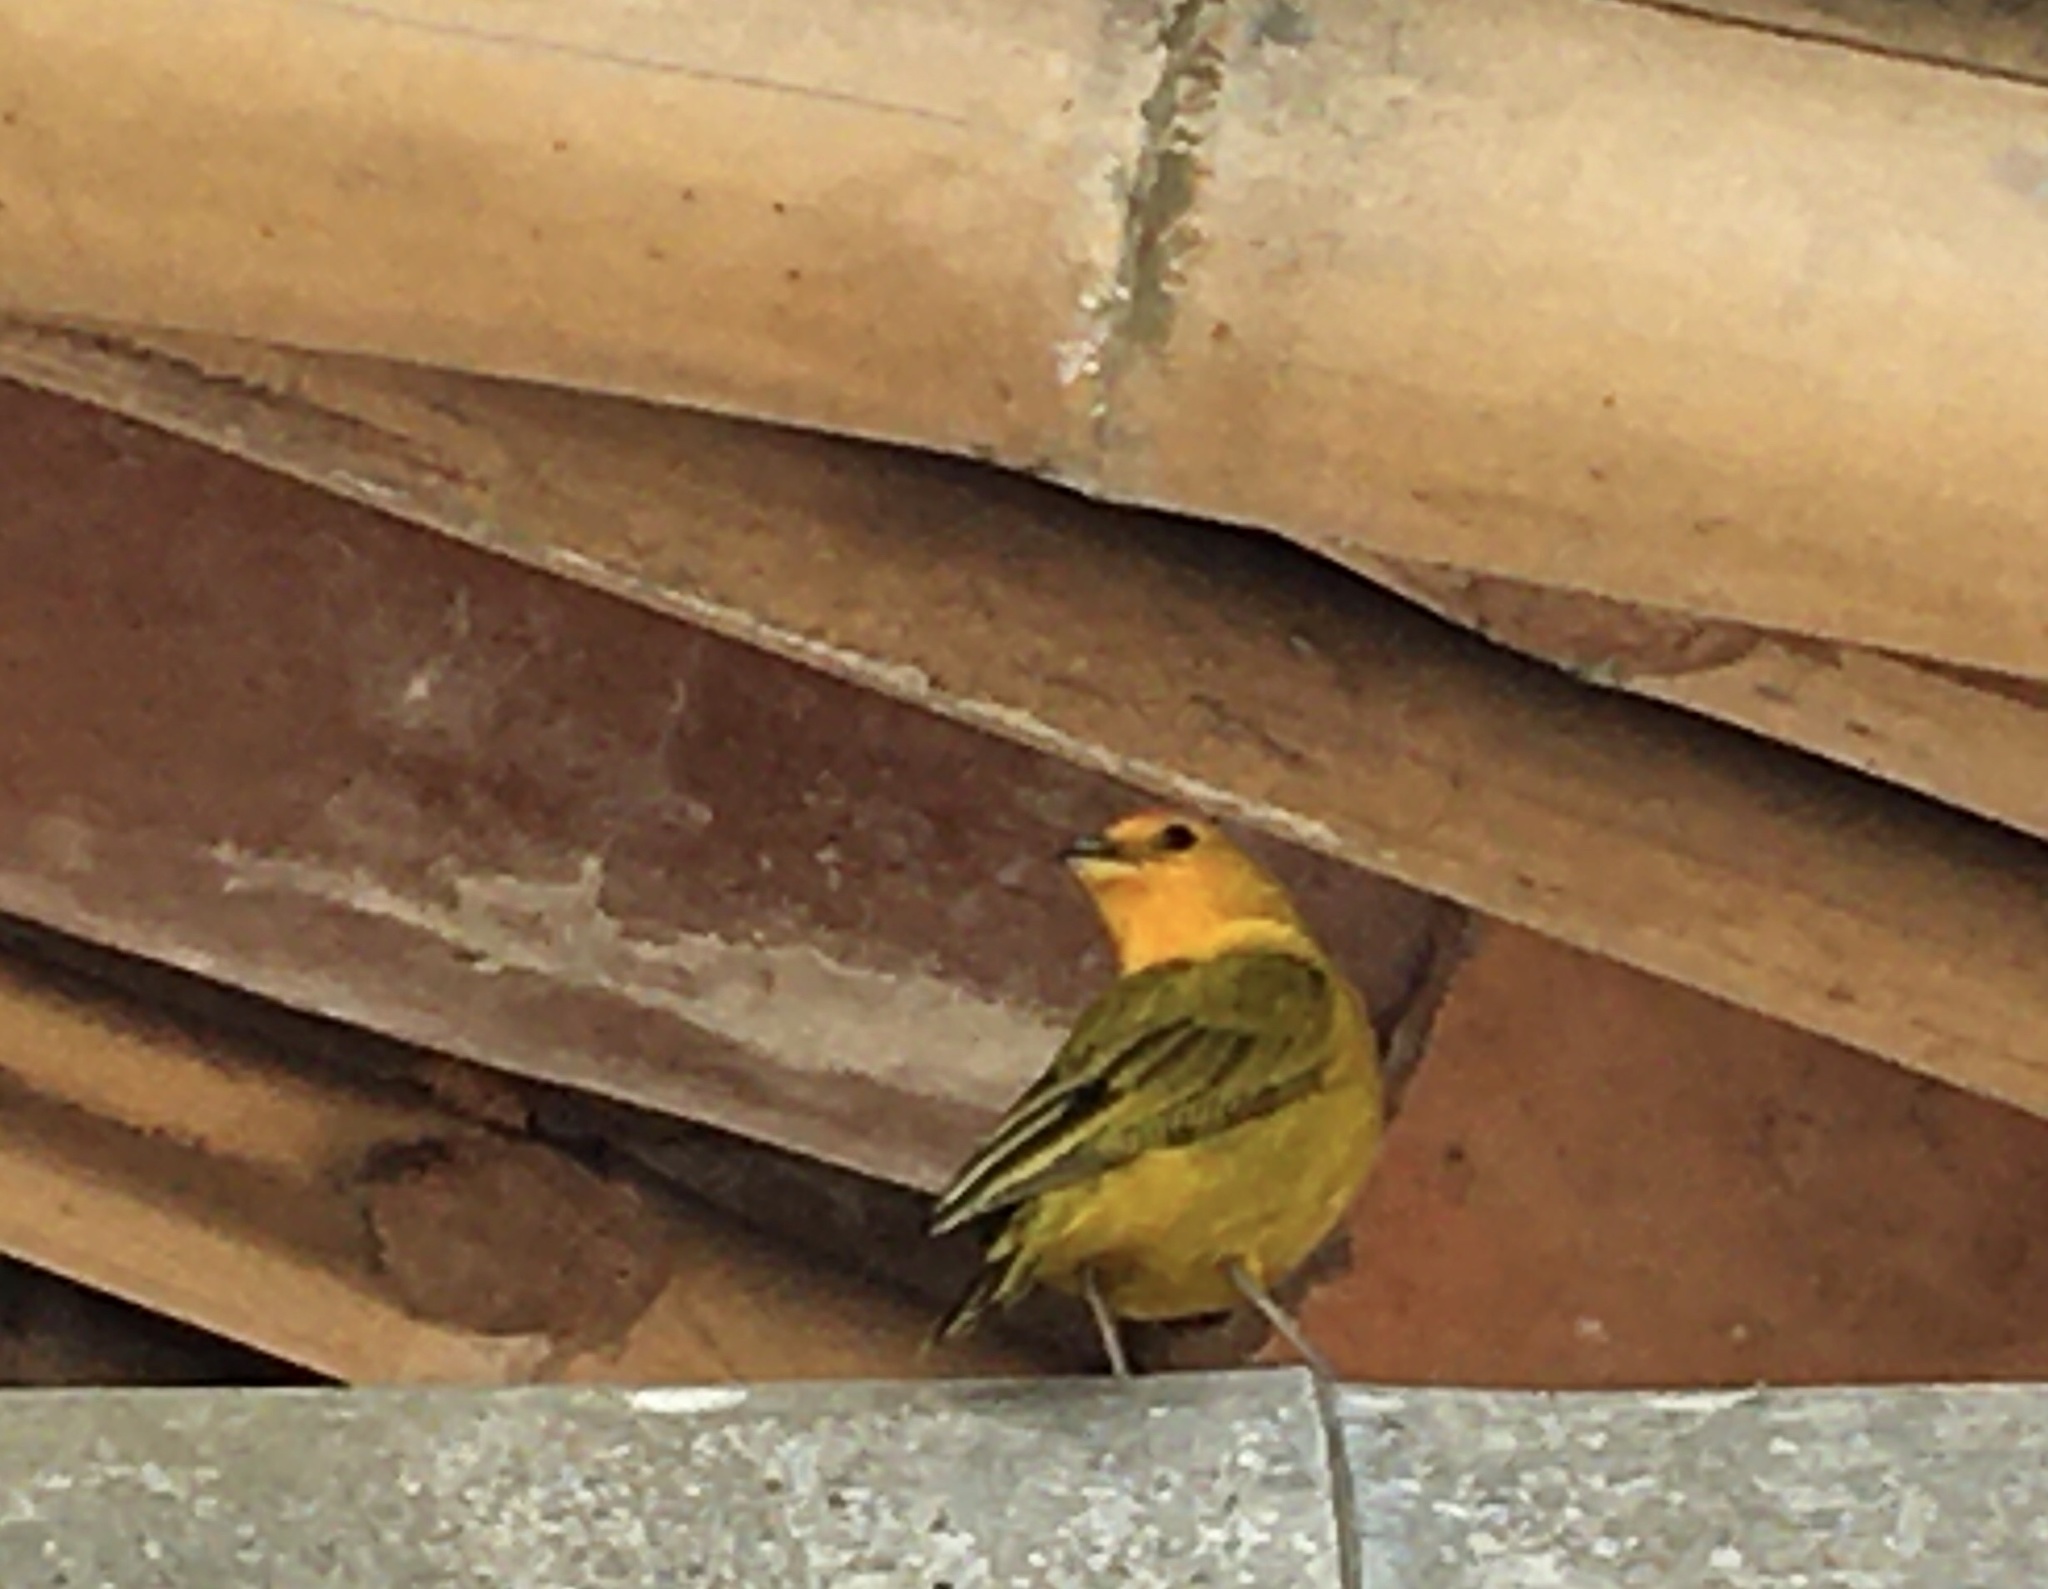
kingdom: Animalia
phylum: Chordata
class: Aves
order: Passeriformes
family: Thraupidae
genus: Sicalis
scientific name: Sicalis flaveola
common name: Saffron finch
